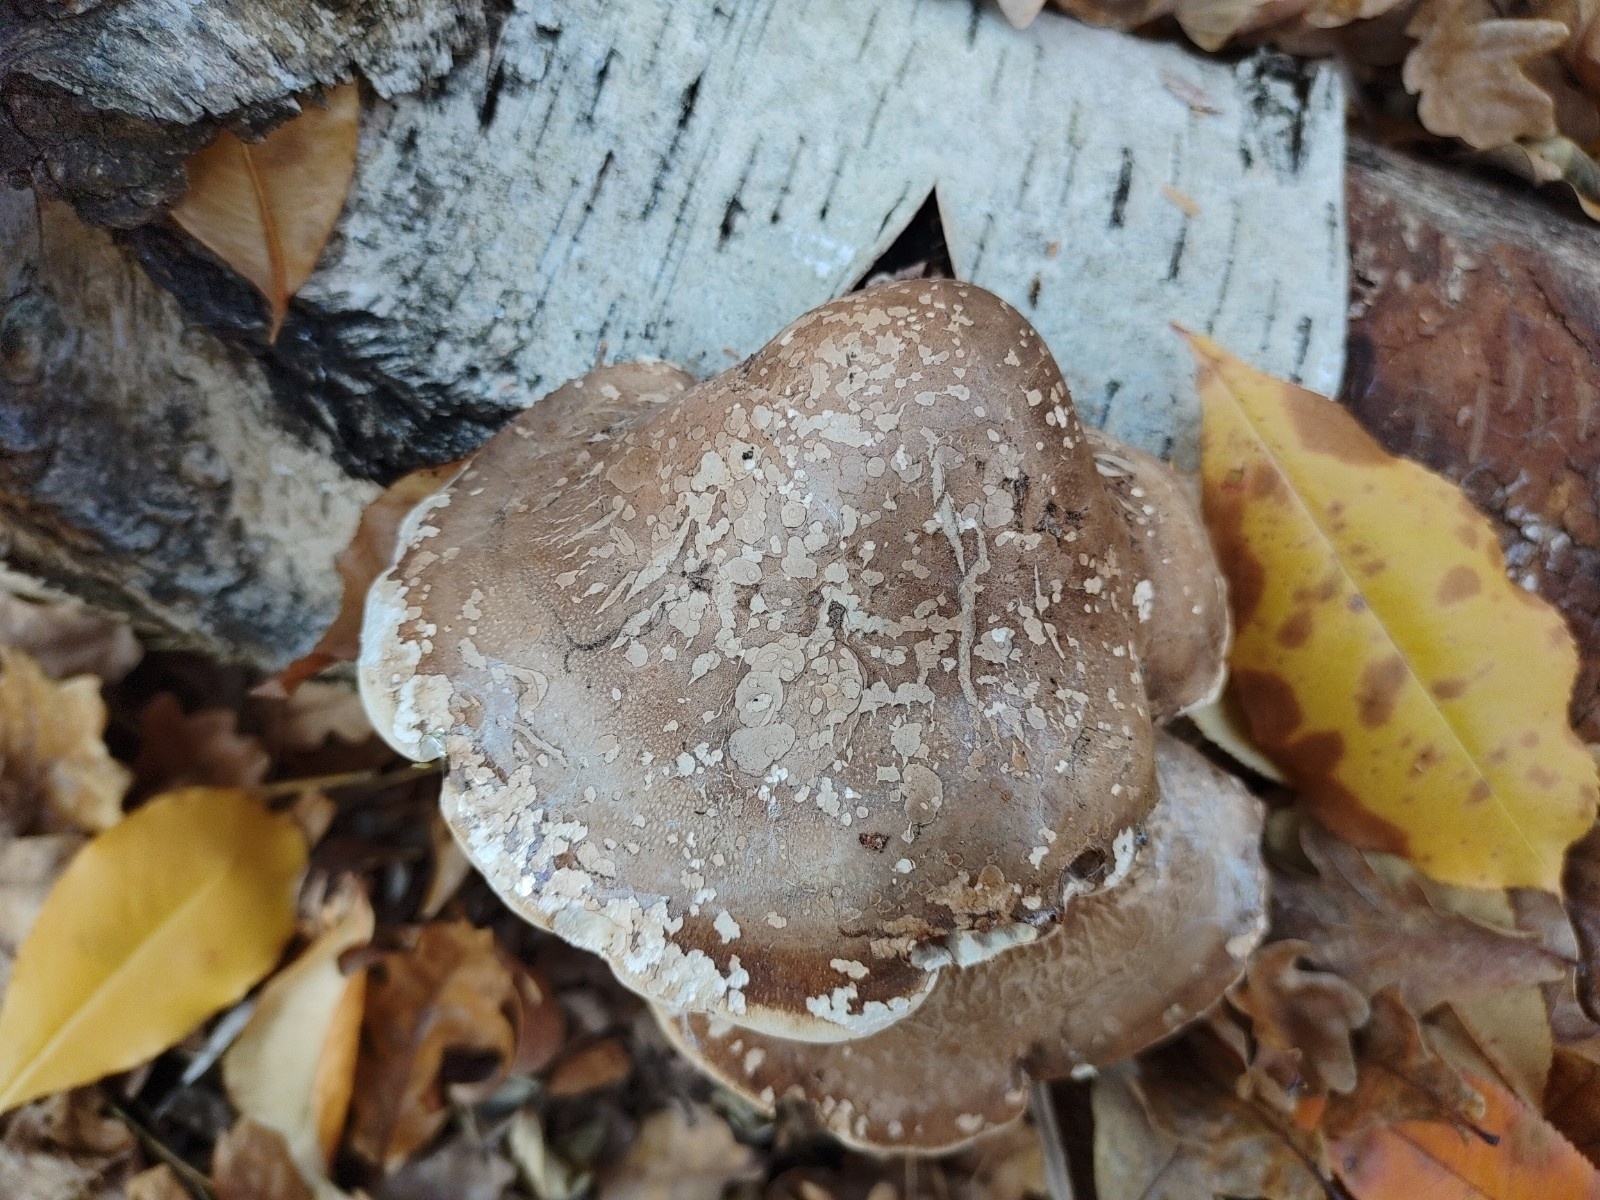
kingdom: Fungi
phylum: Basidiomycota
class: Agaricomycetes
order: Polyporales
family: Fomitopsidaceae
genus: Fomitopsis
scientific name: Fomitopsis betulina
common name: Birch polypore
